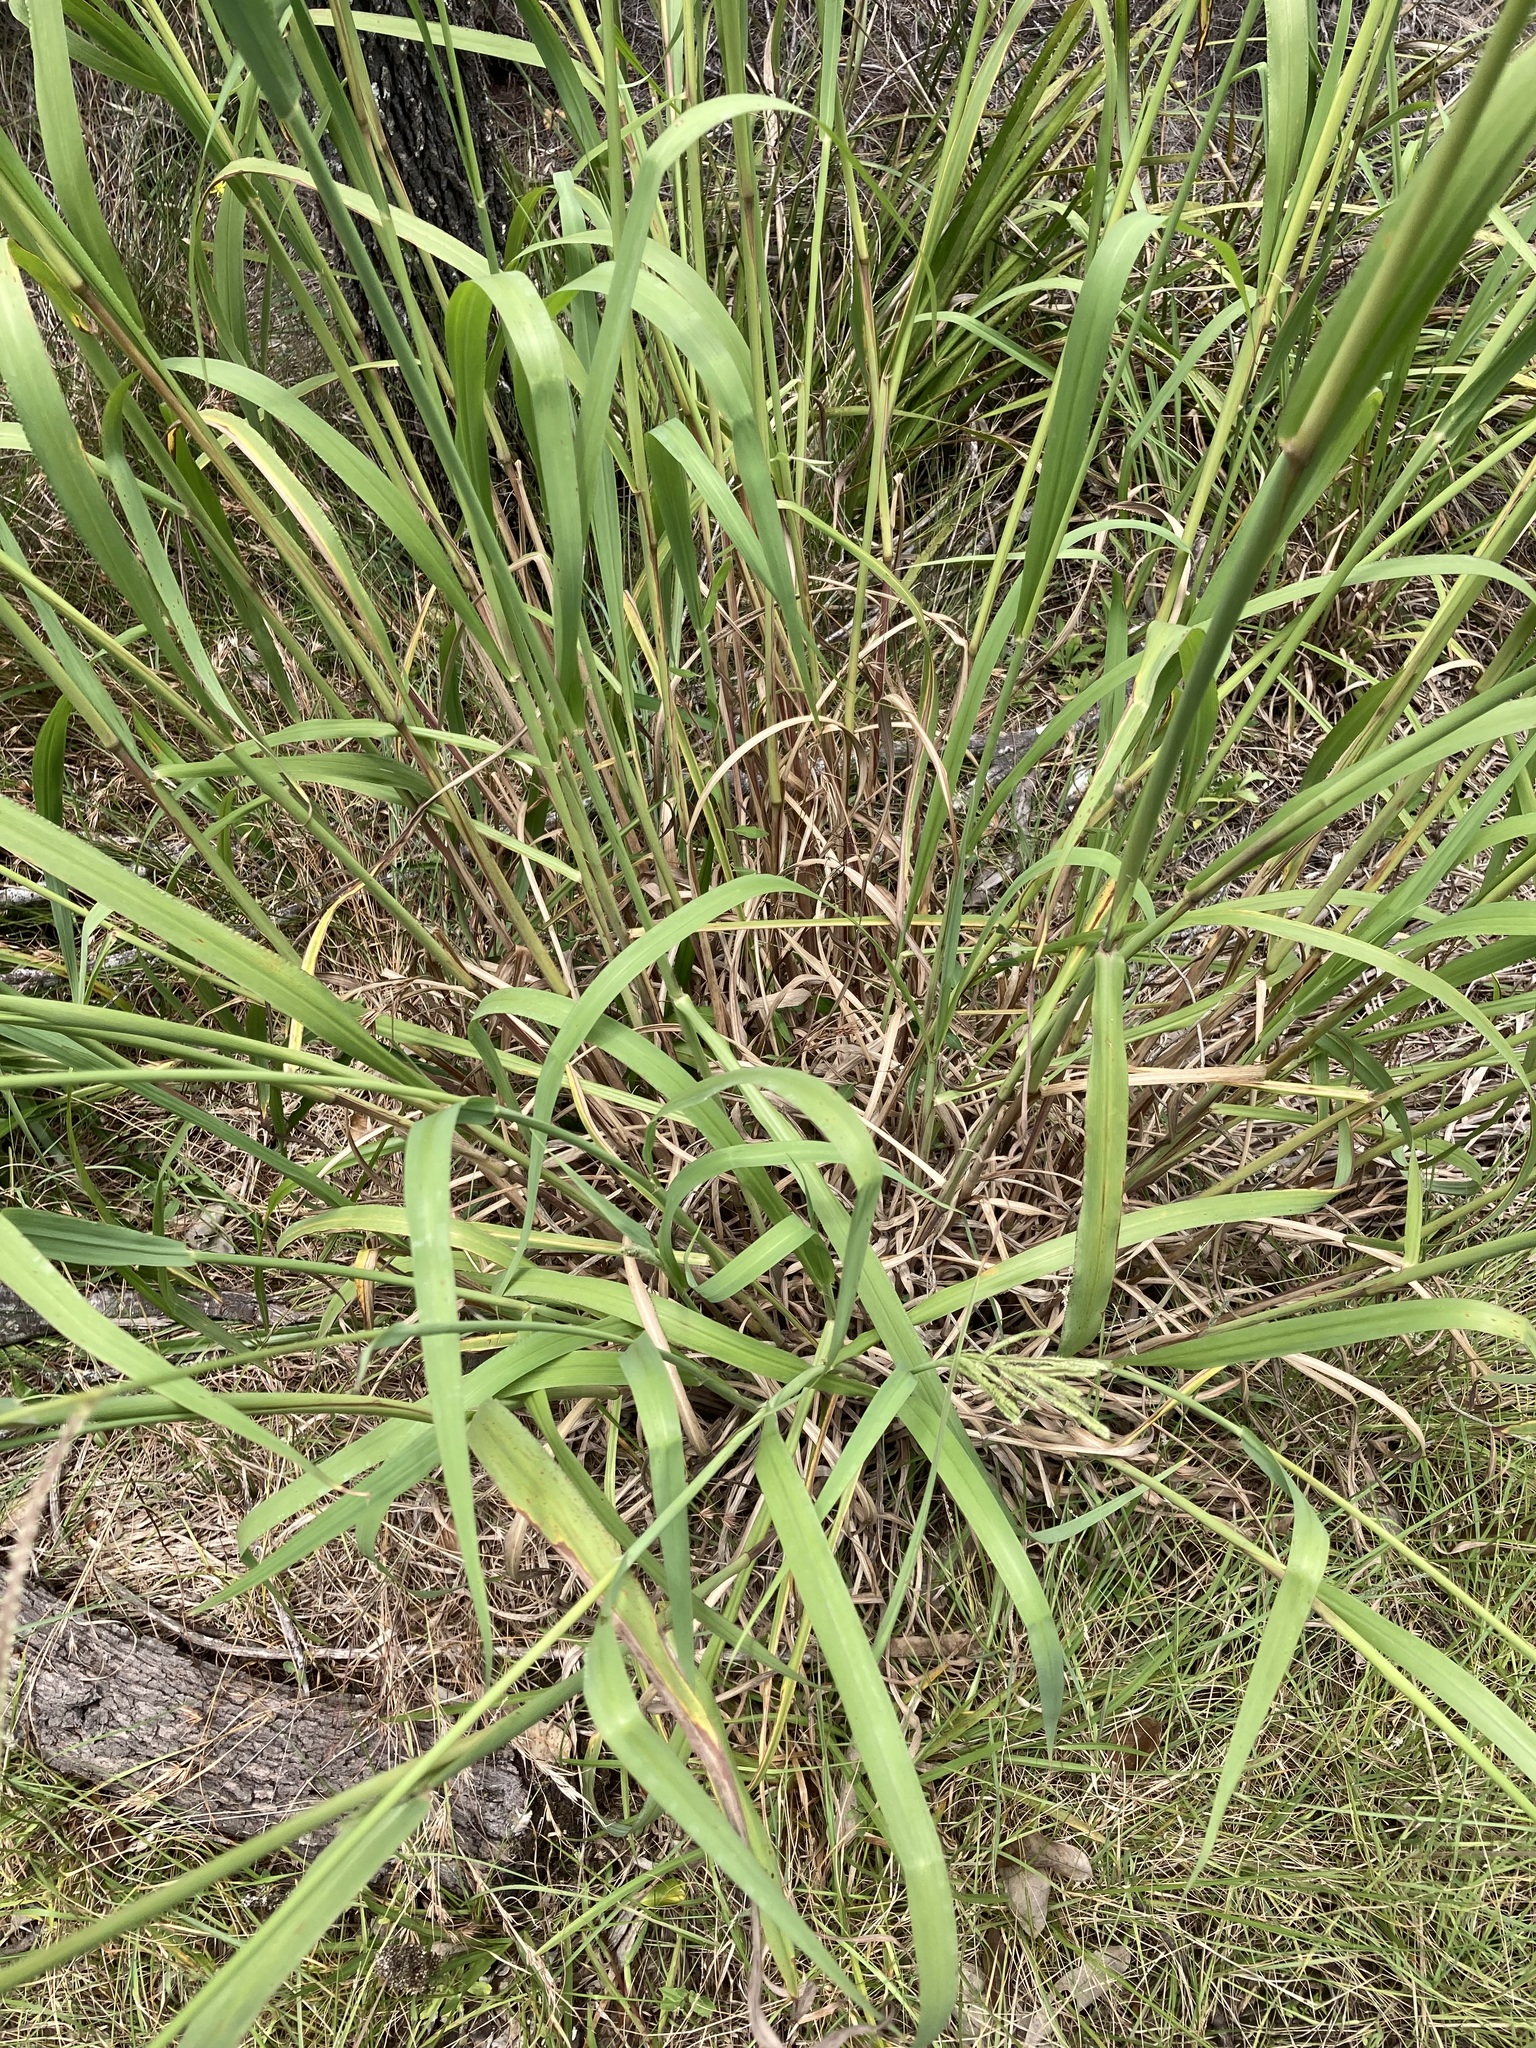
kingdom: Plantae
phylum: Tracheophyta
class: Liliopsida
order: Poales
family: Poaceae
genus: Paspalum
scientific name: Paspalum urvillei
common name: Vasey's grass
